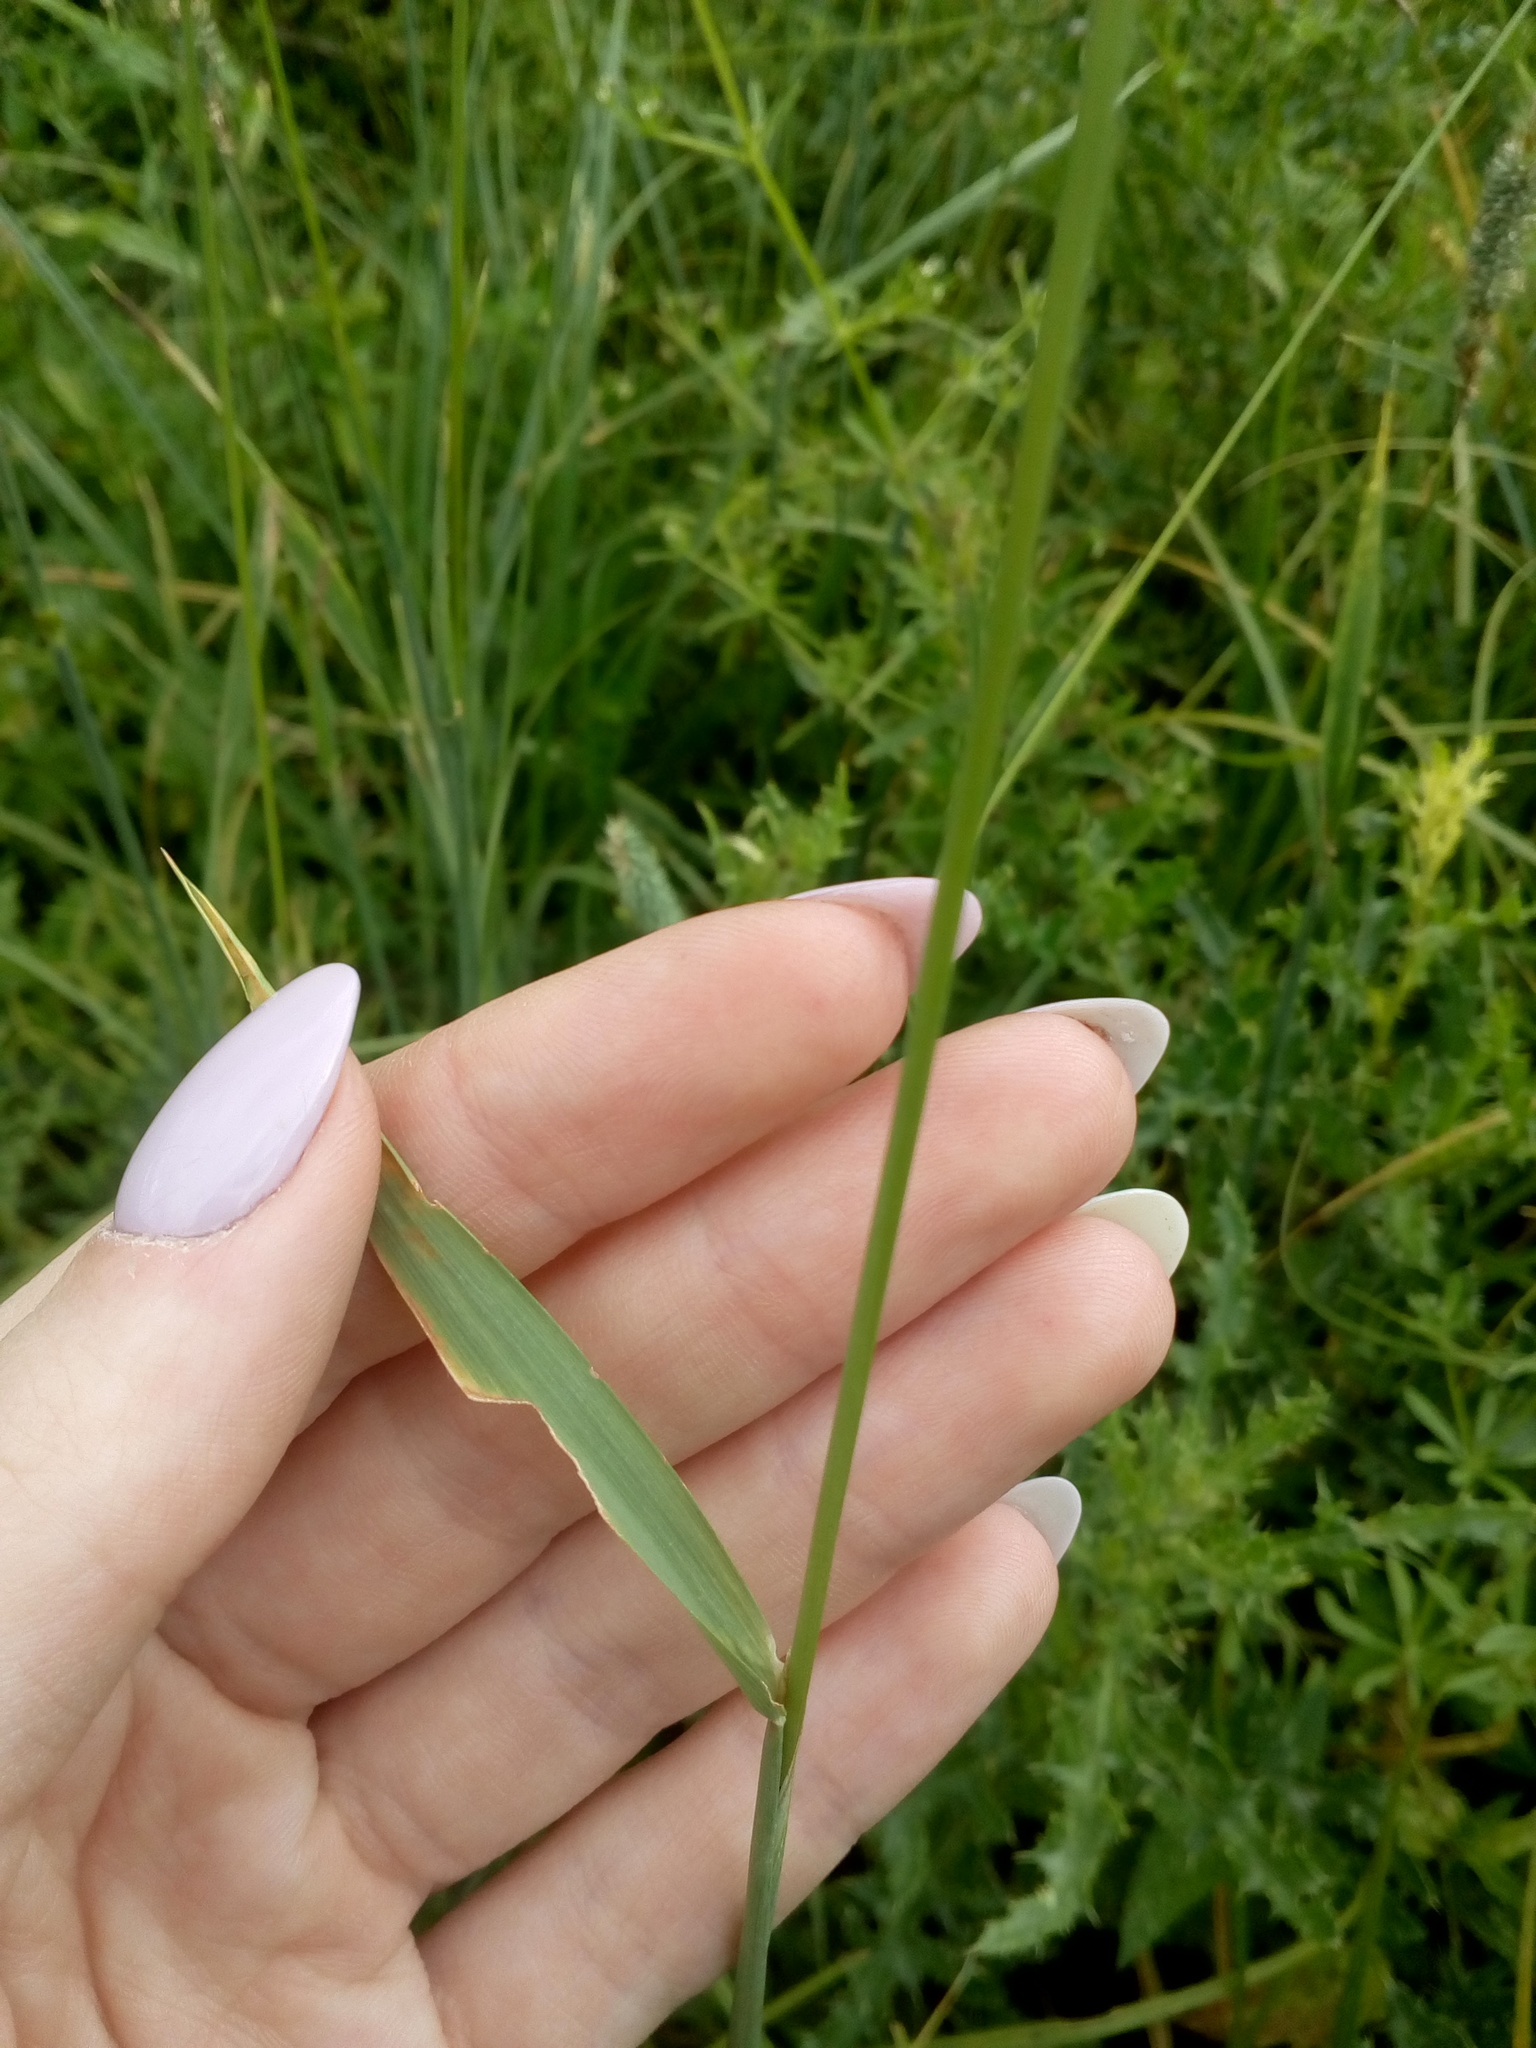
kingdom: Plantae
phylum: Tracheophyta
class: Liliopsida
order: Poales
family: Poaceae
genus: Phleum
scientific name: Phleum pratense
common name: Timothy grass
